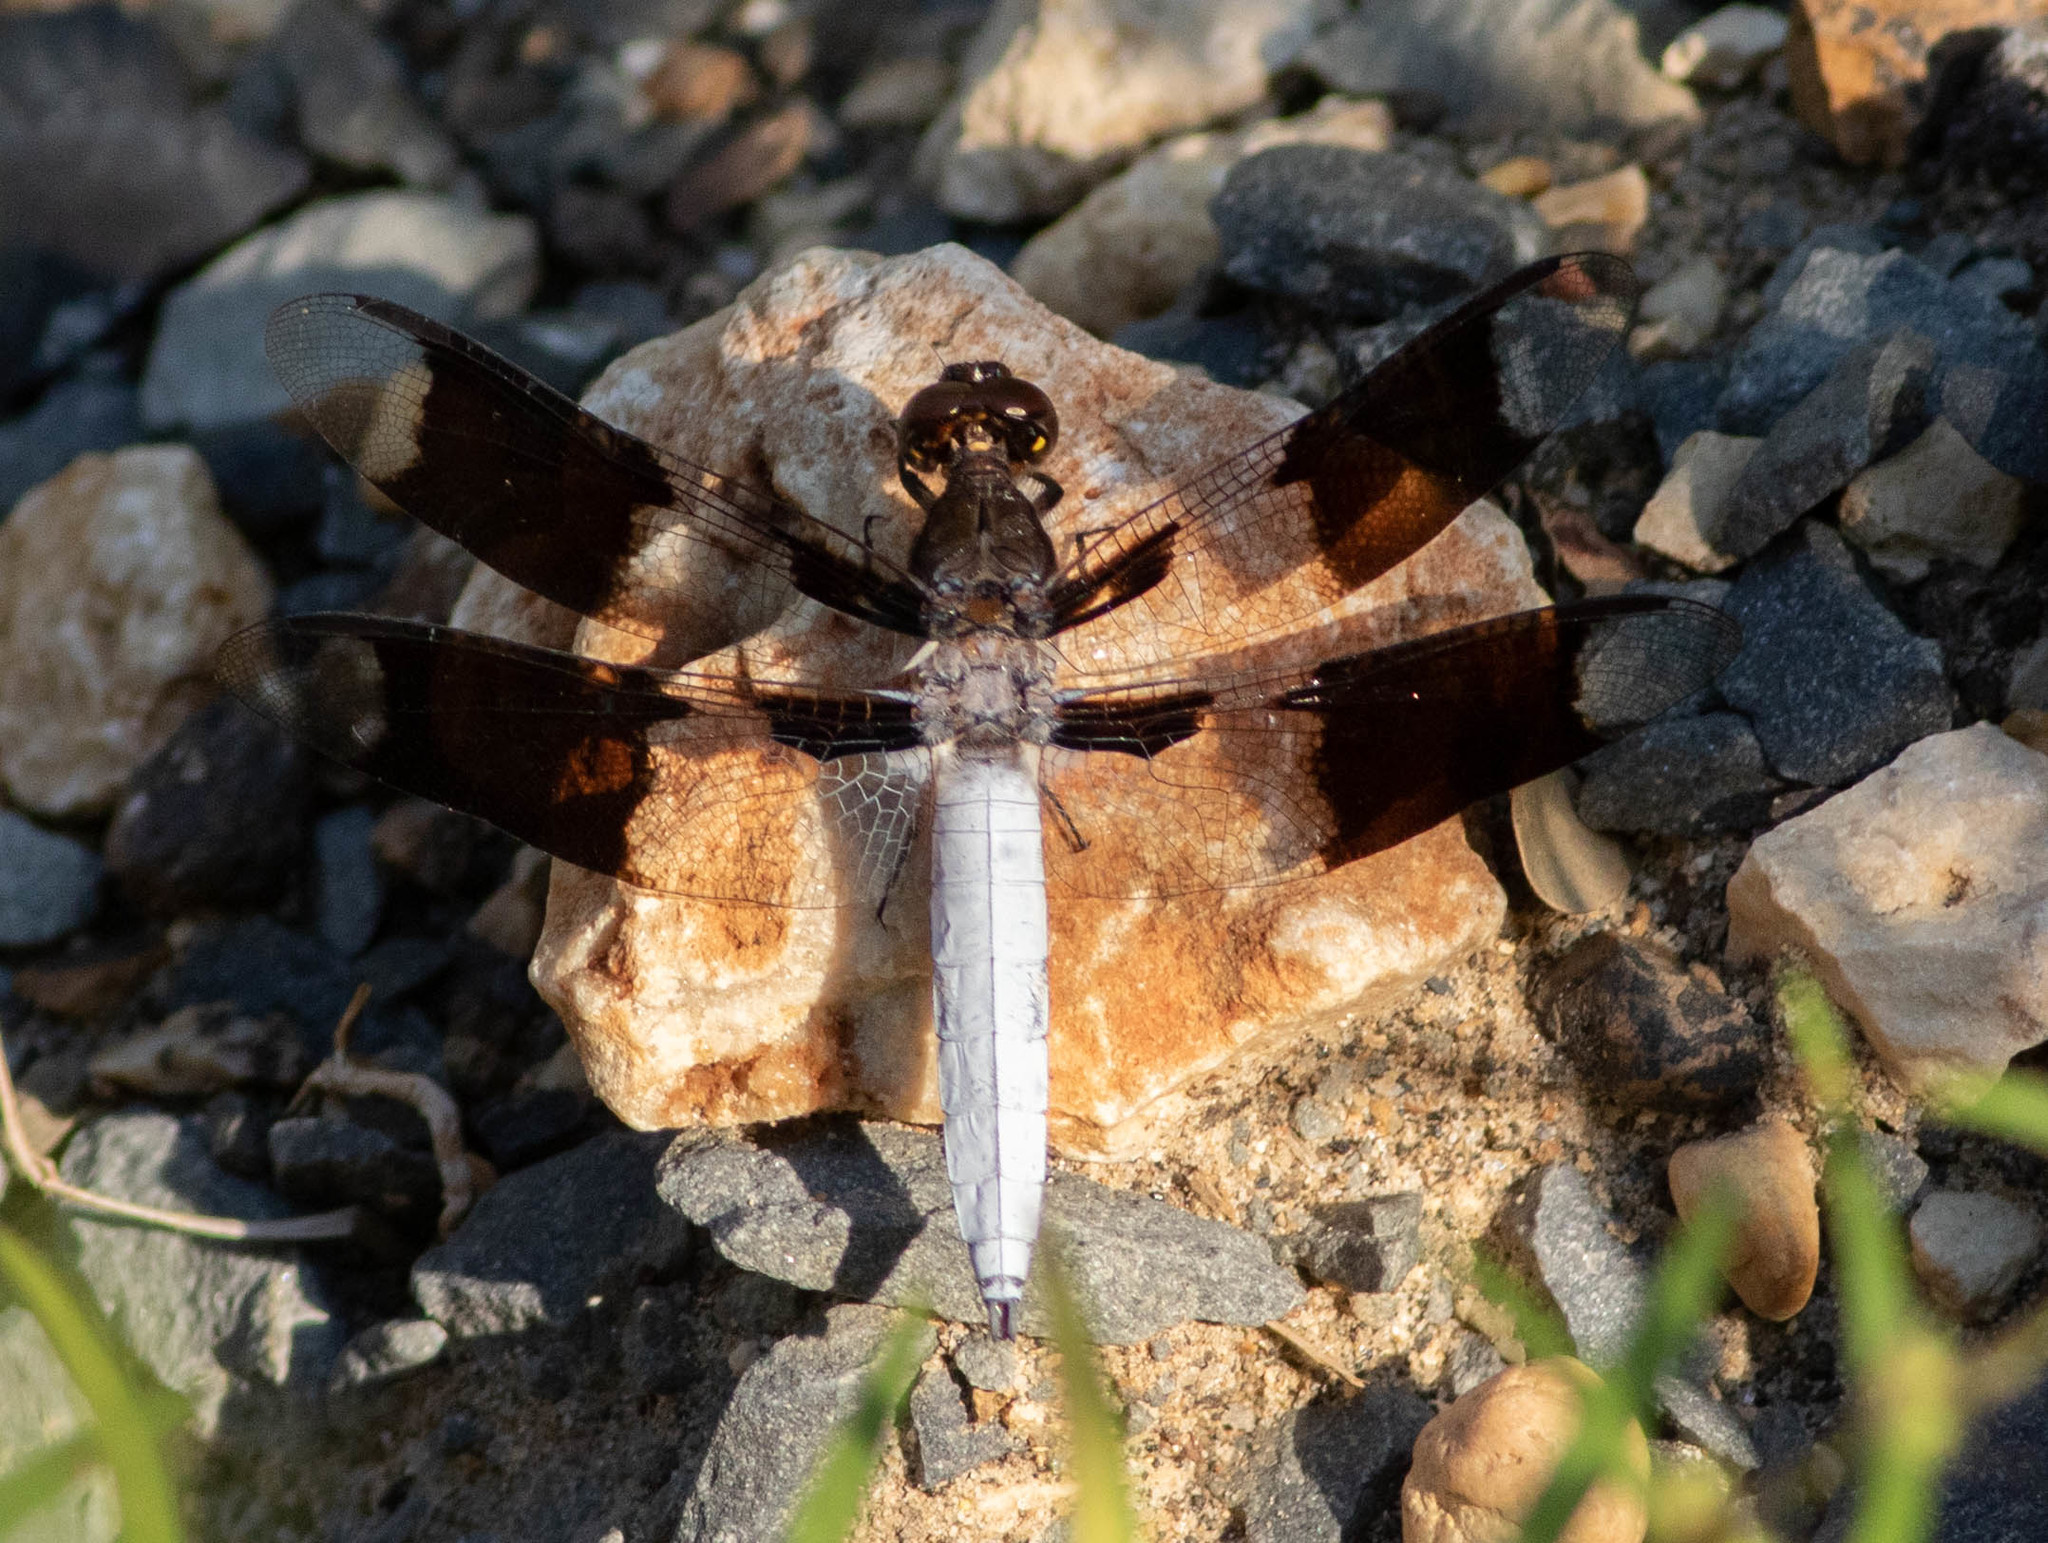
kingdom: Animalia
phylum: Arthropoda
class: Insecta
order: Odonata
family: Libellulidae
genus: Plathemis
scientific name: Plathemis lydia
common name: Common whitetail
